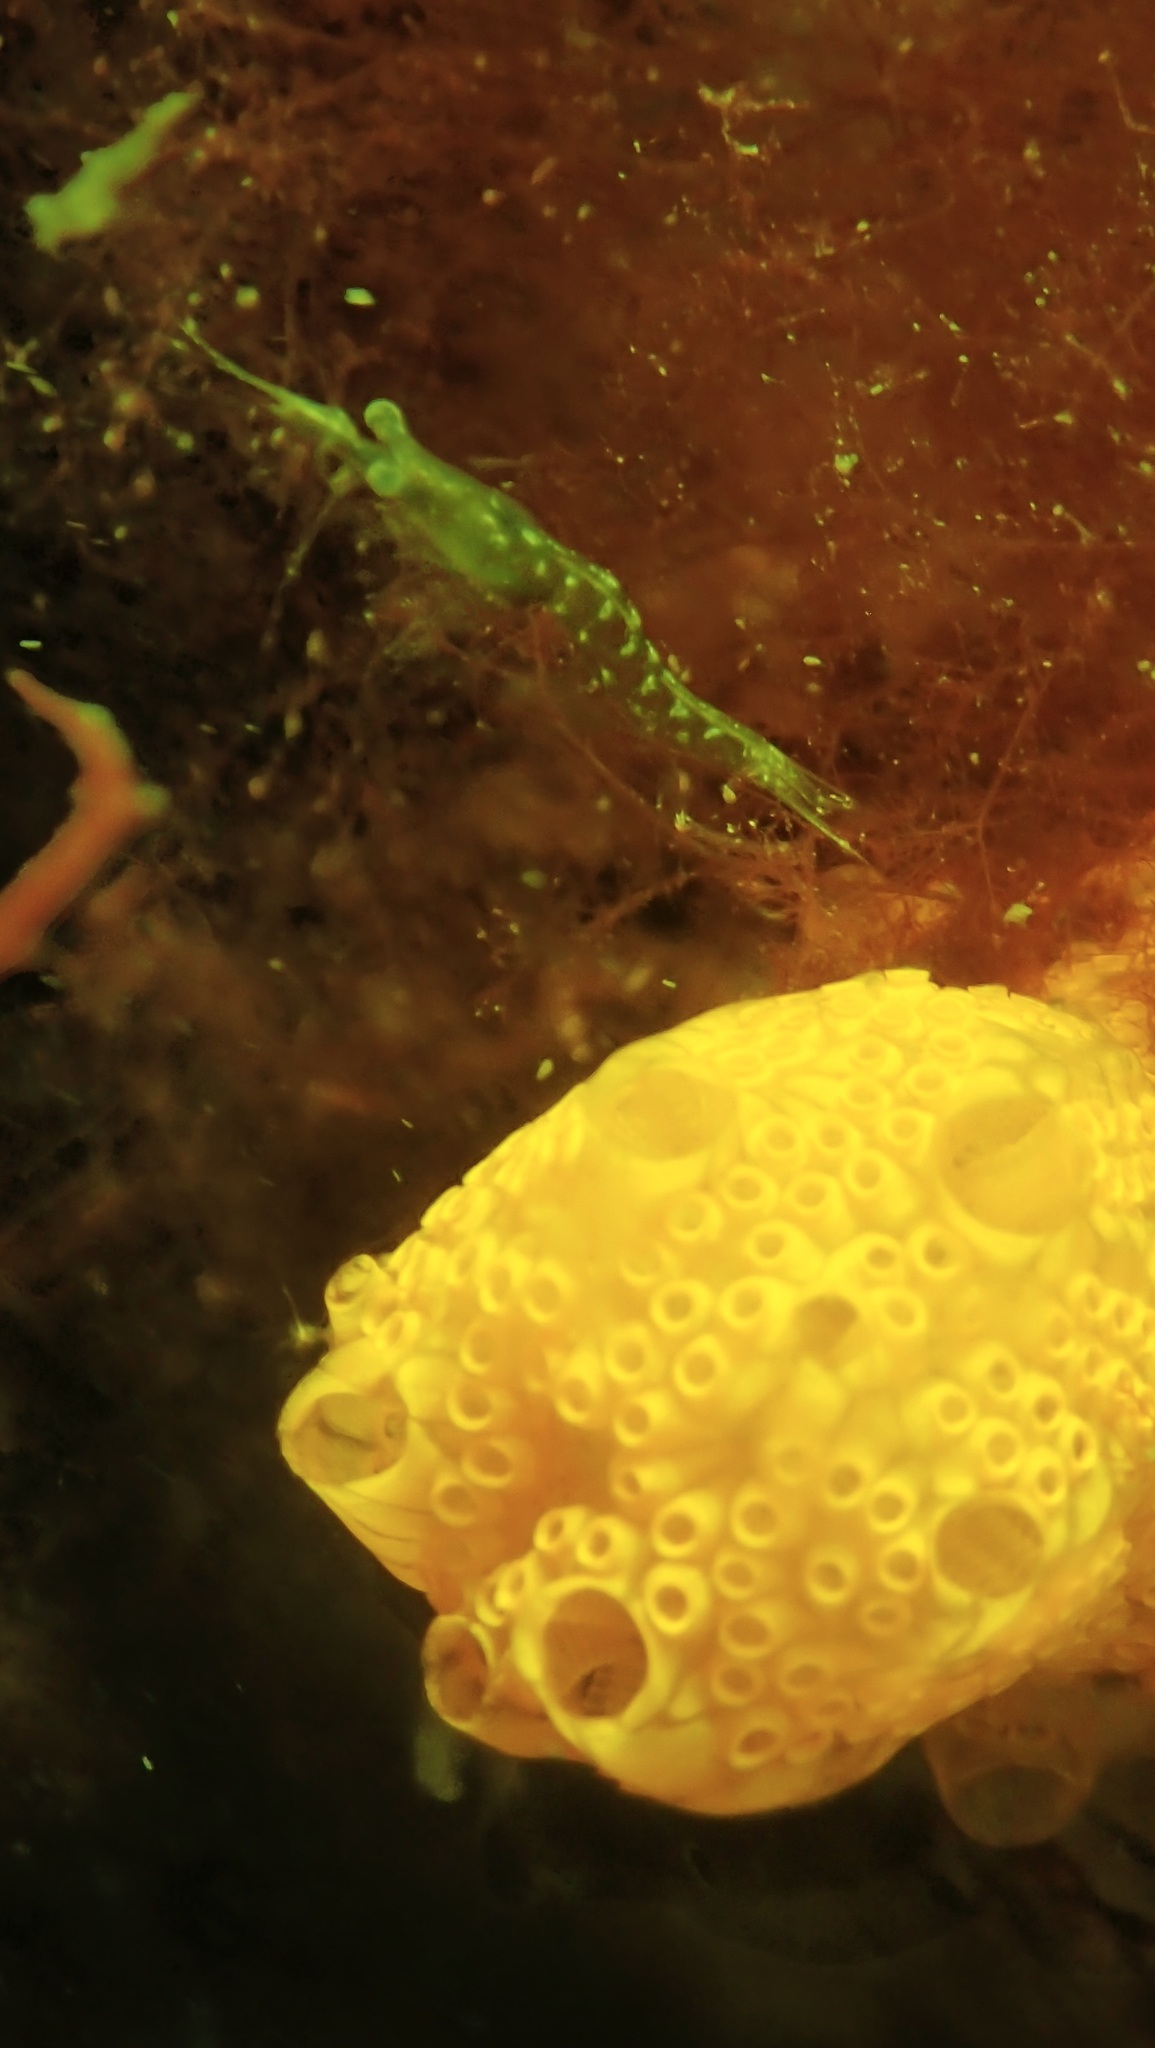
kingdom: Animalia
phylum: Chordata
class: Ascidiacea
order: Stolidobranchia
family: Styelidae
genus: Botrylloides
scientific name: Botrylloides diegensis
